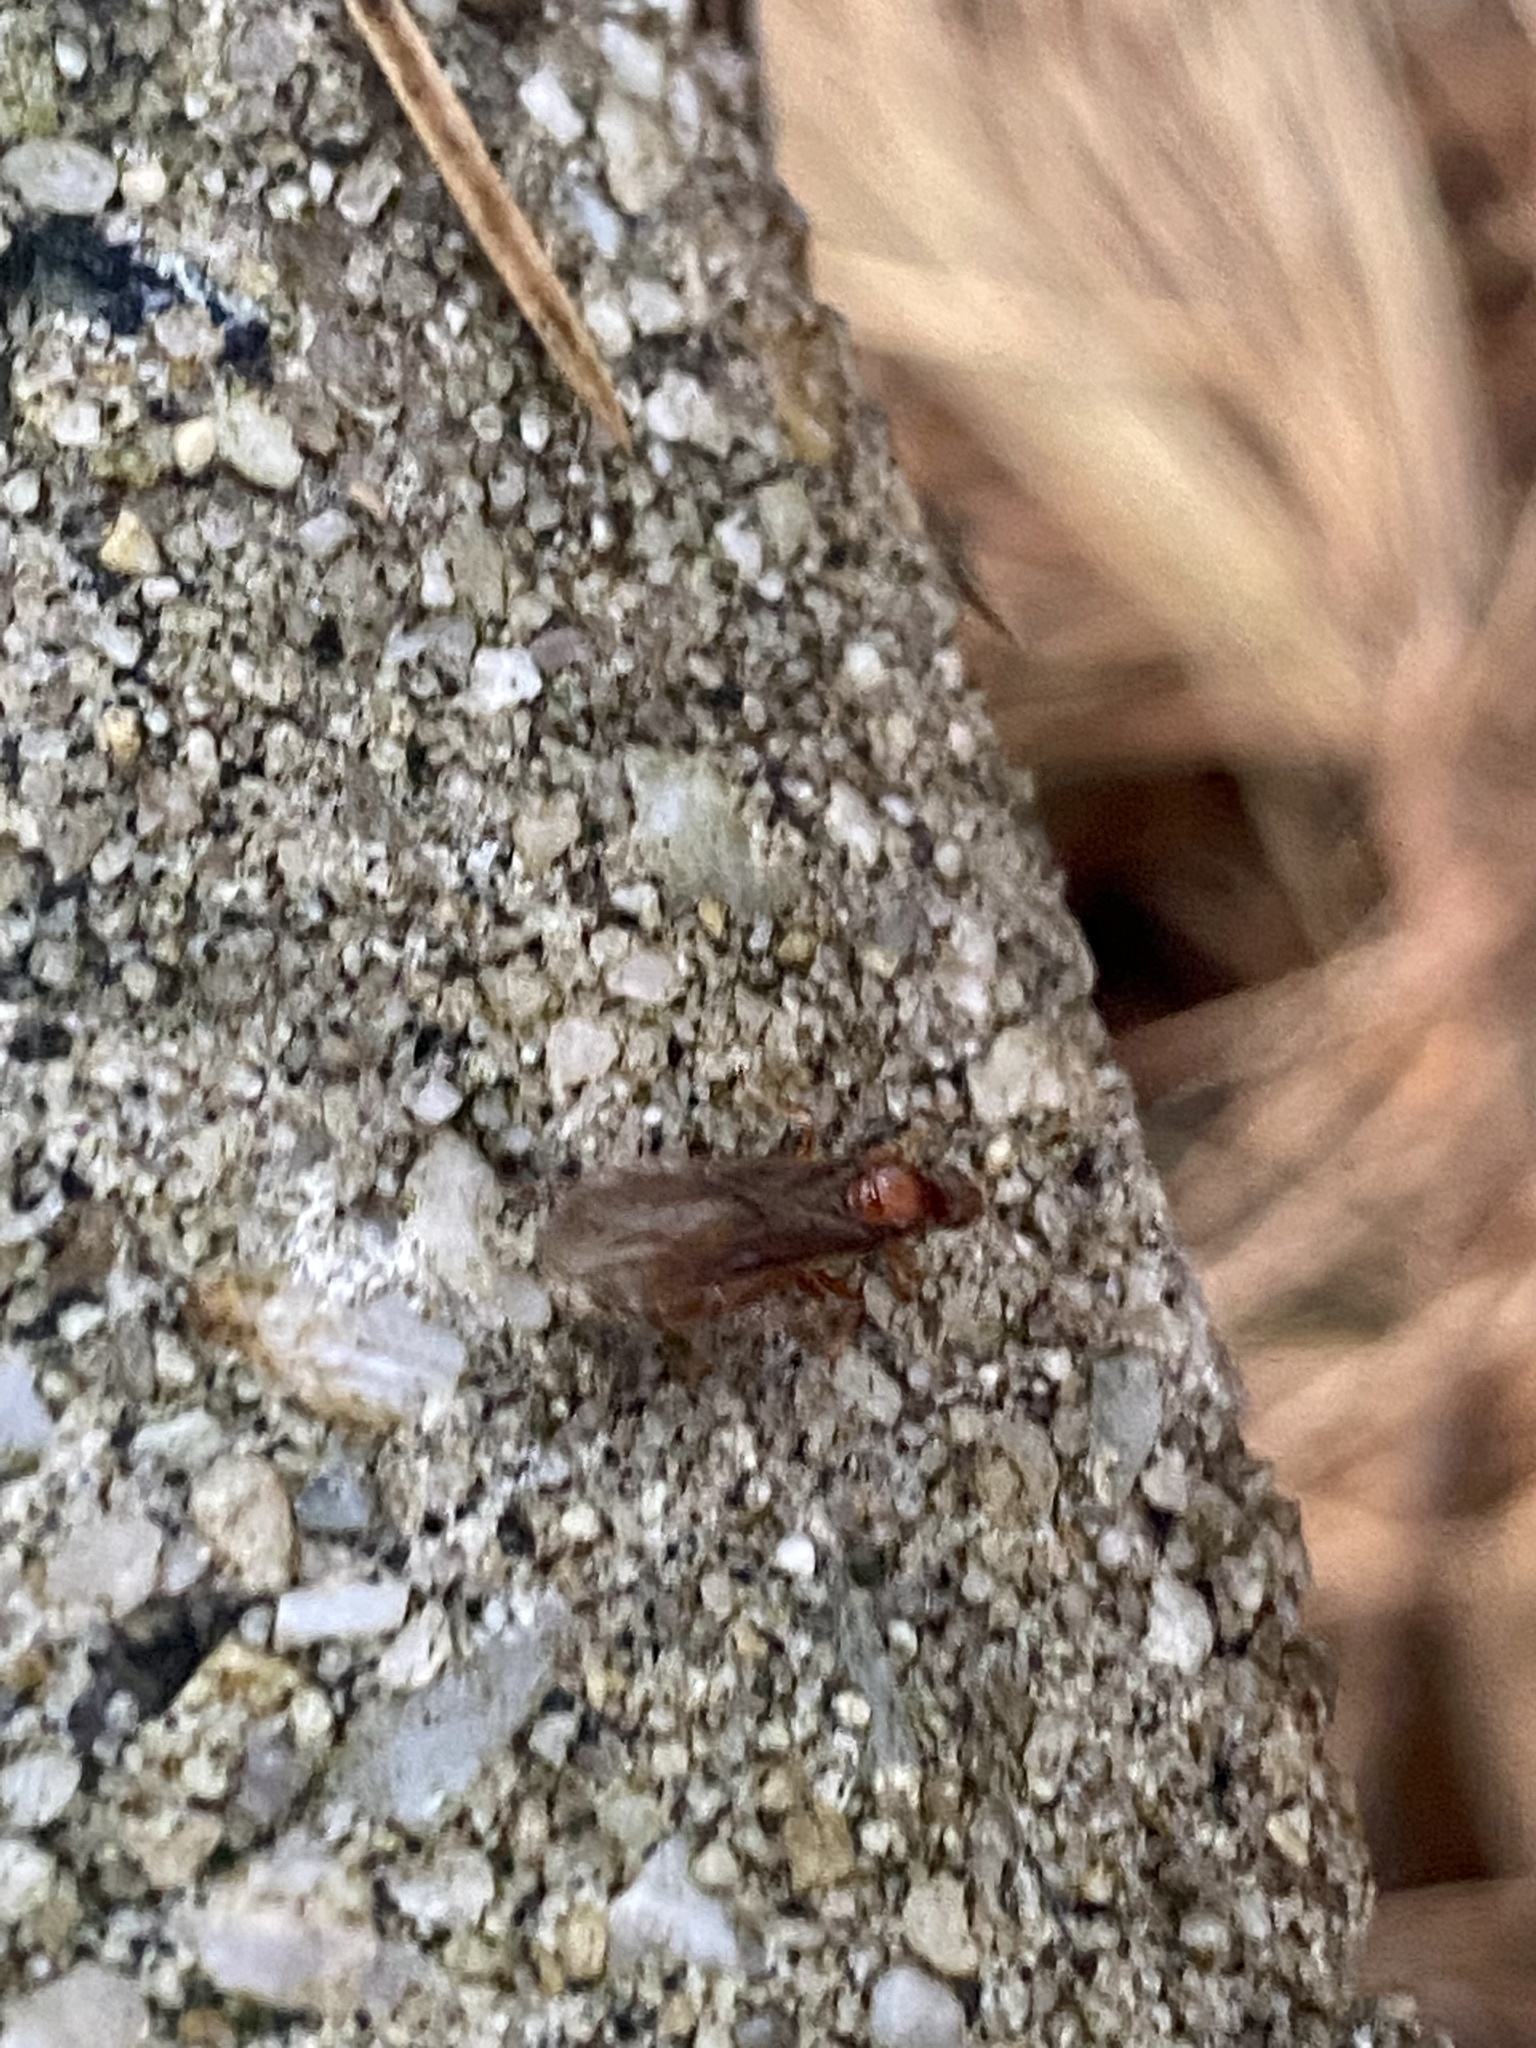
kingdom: Animalia
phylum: Arthropoda
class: Insecta
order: Hymenoptera
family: Formicidae
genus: Prenolepis
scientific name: Prenolepis imparis
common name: Small honey ant
